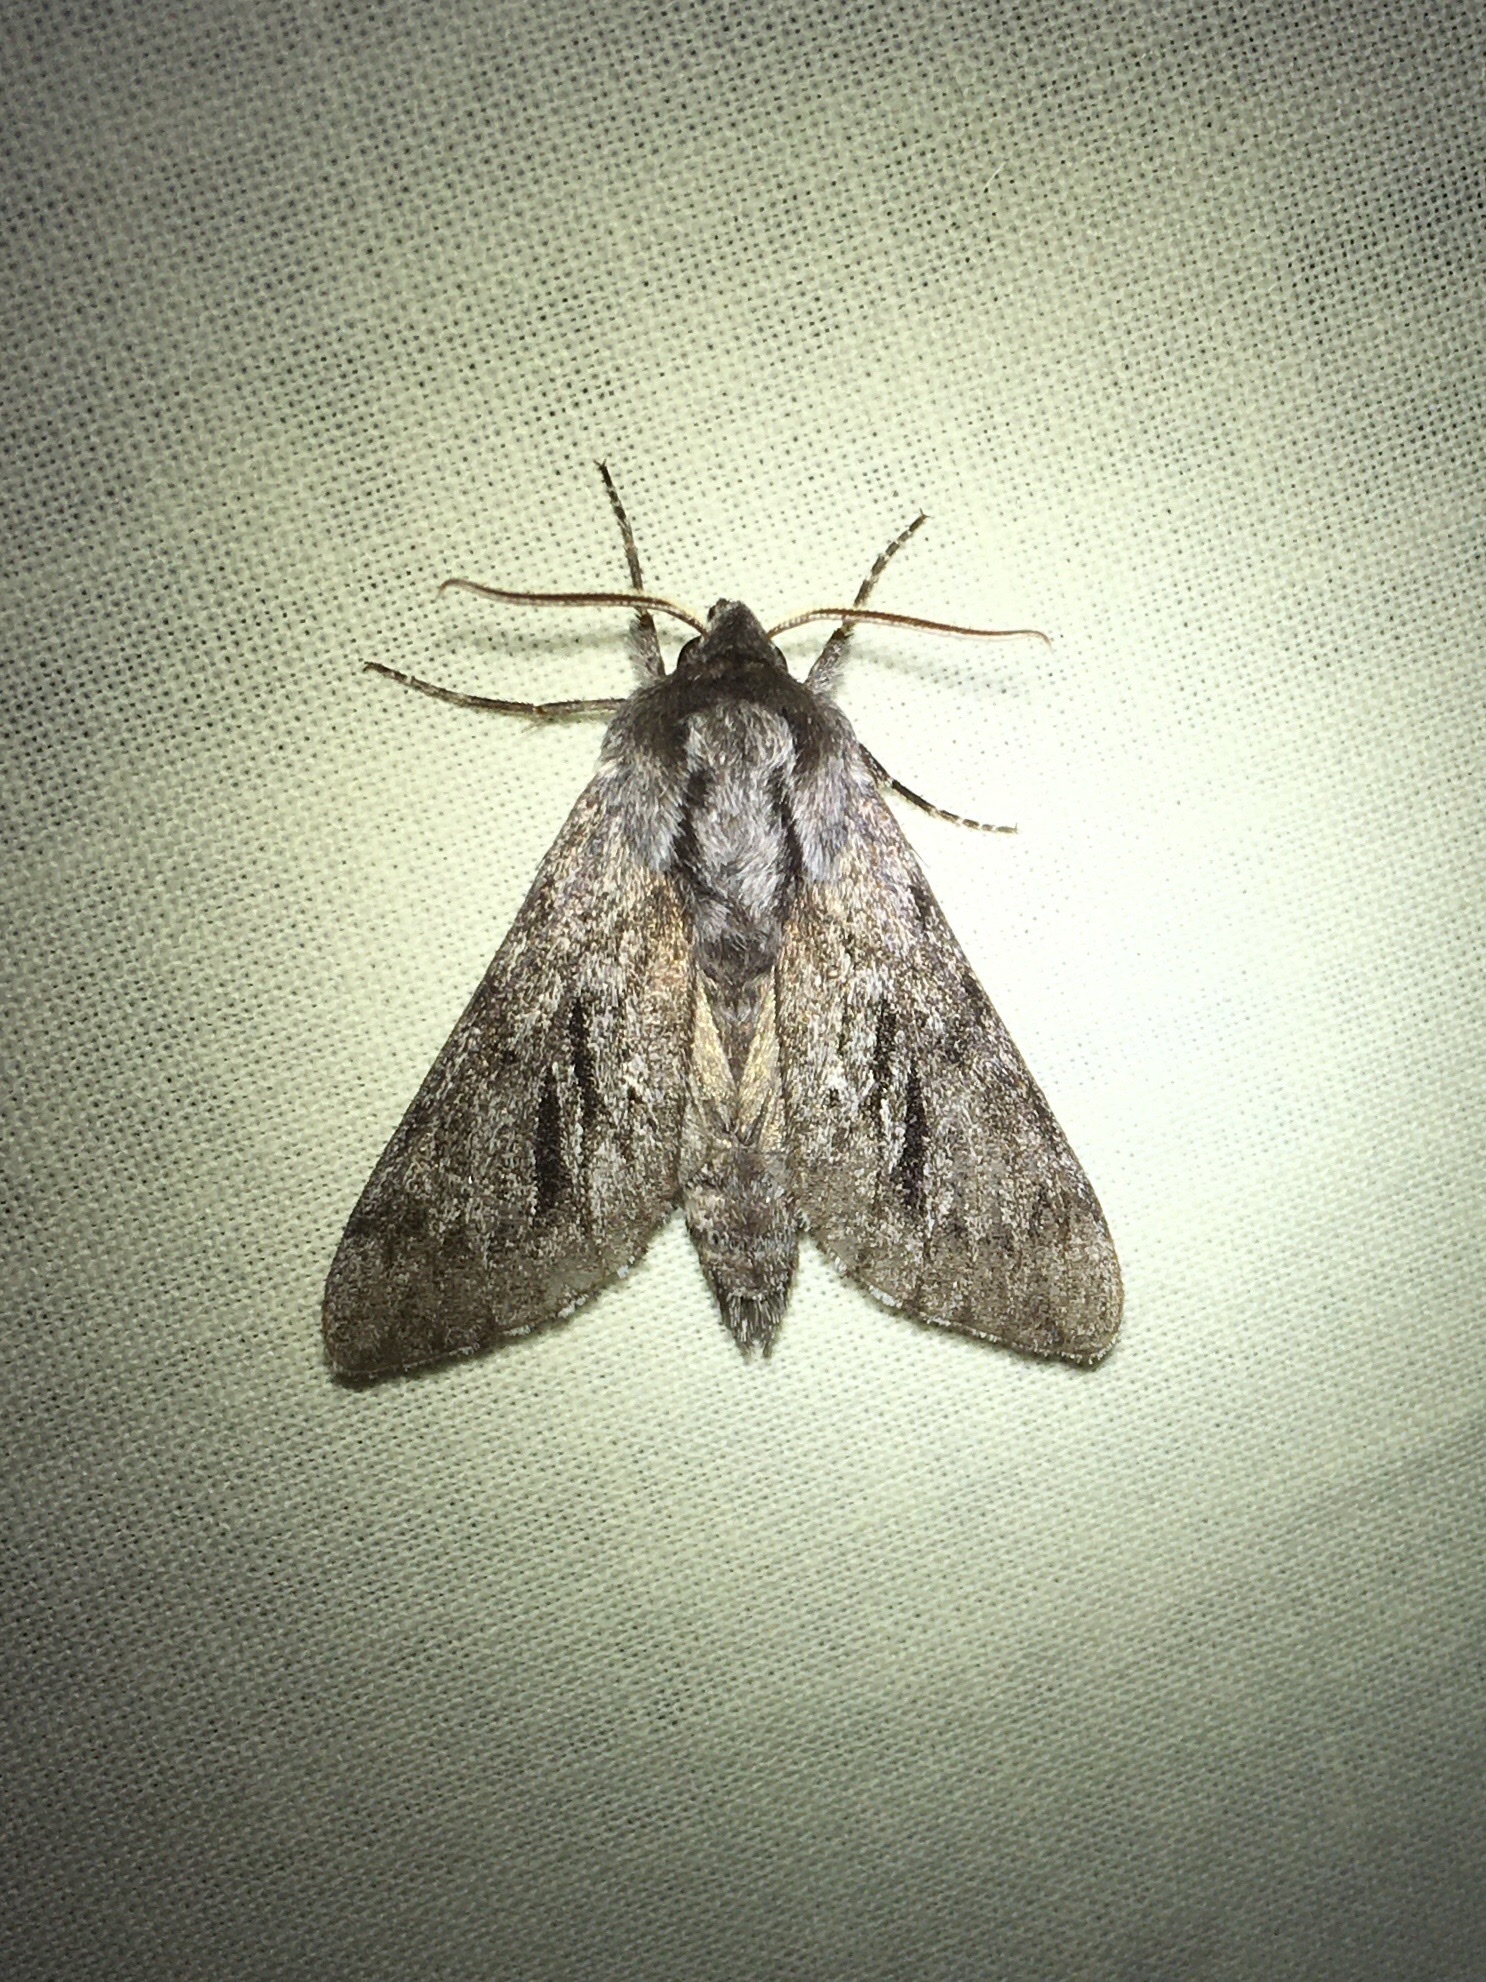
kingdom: Animalia
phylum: Arthropoda
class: Insecta
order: Lepidoptera
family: Sphingidae
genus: Lapara
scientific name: Lapara bombycoides
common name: Northern pine sphinx
